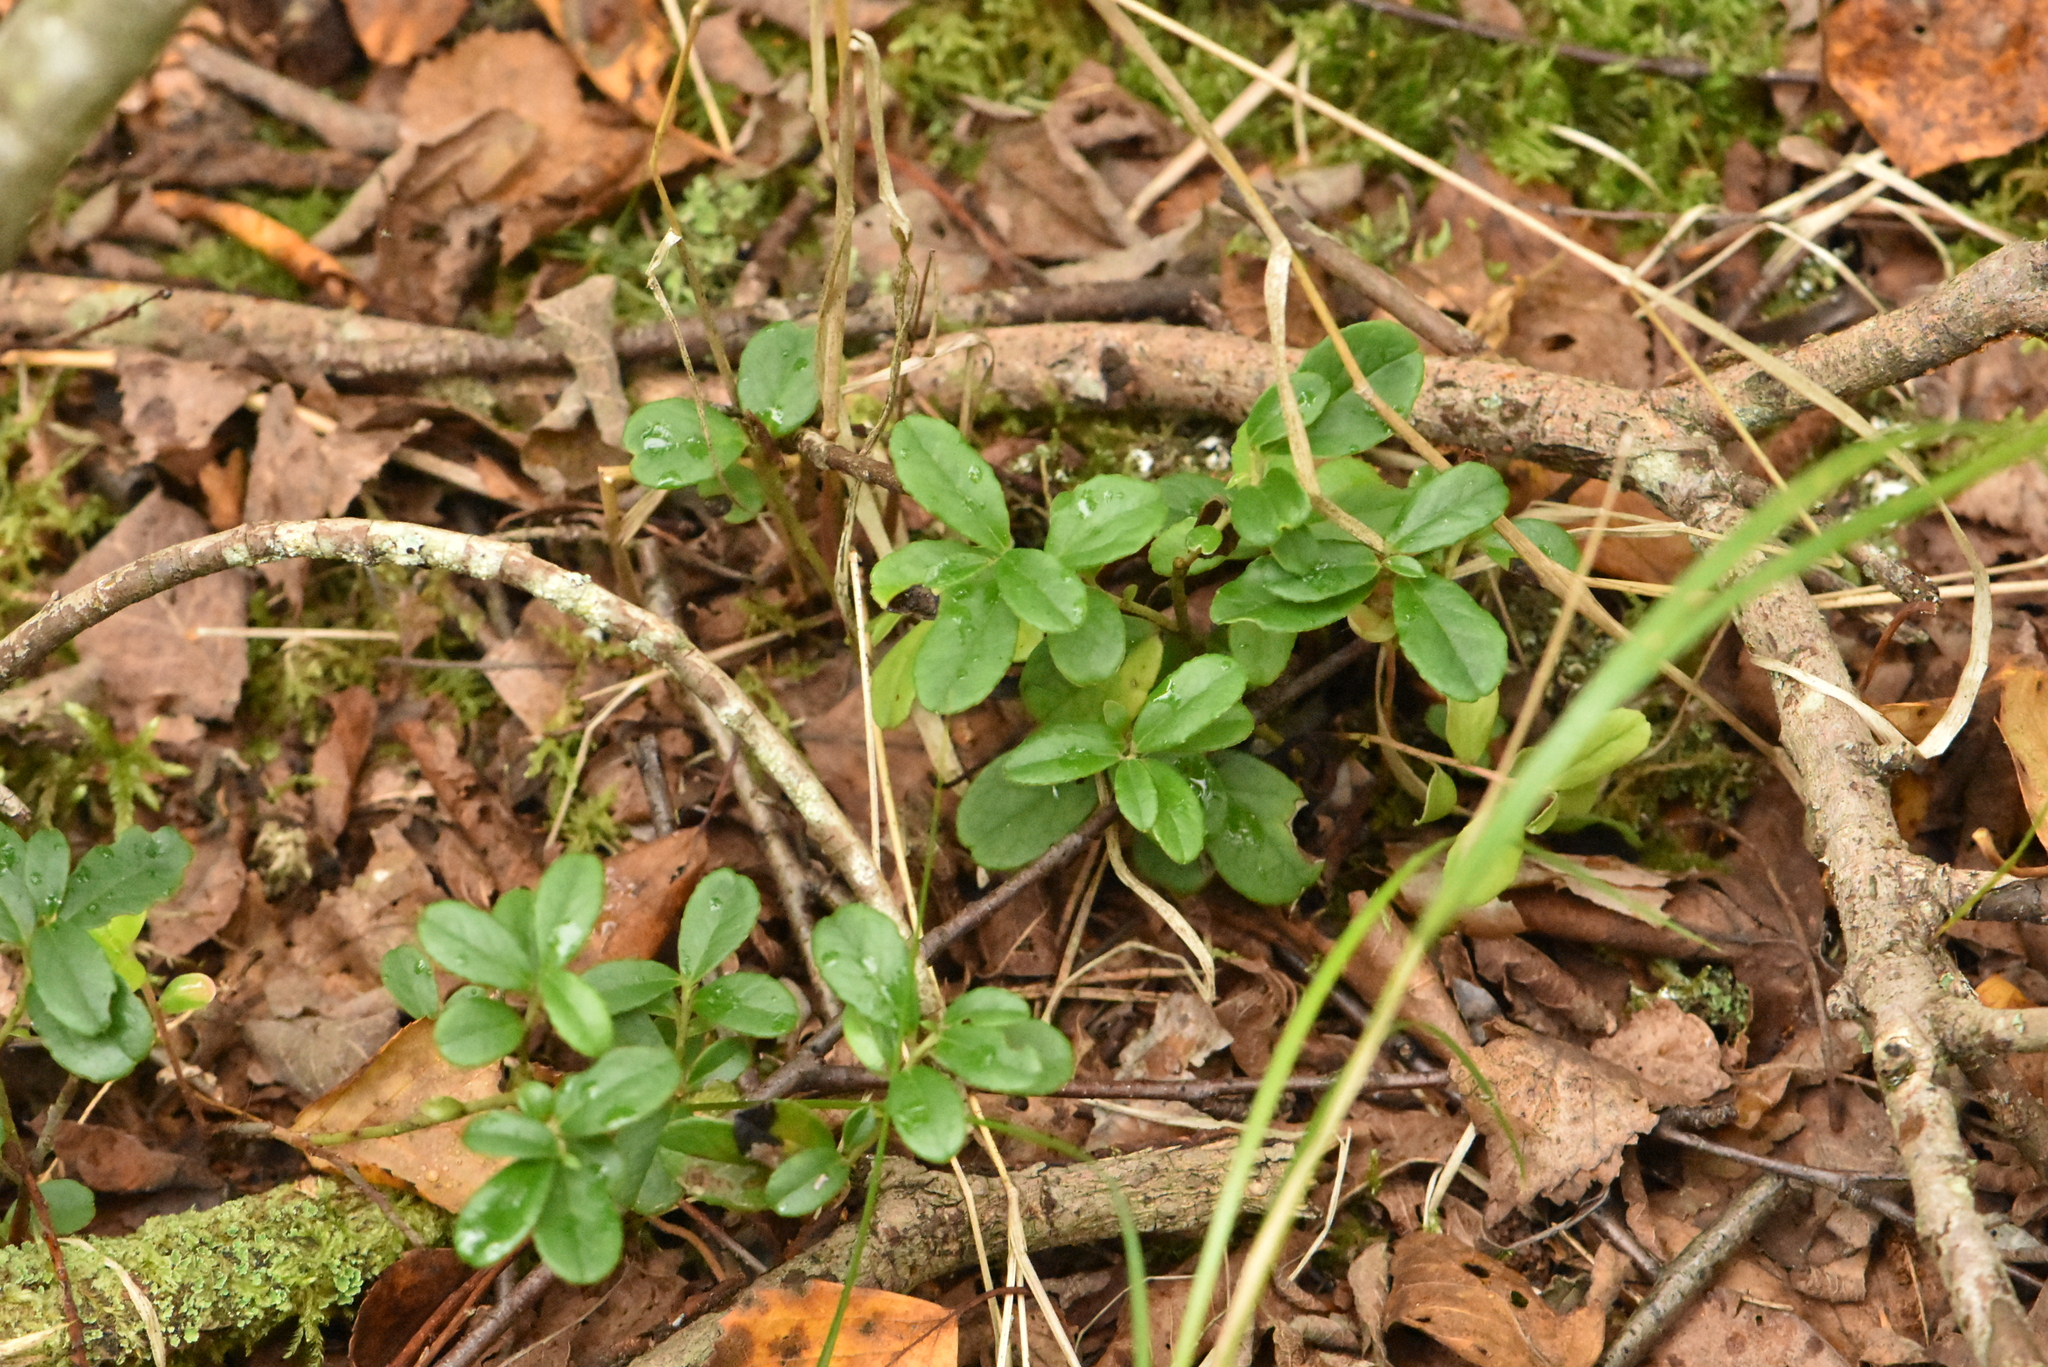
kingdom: Plantae
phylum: Tracheophyta
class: Magnoliopsida
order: Ericales
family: Ericaceae
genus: Vaccinium
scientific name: Vaccinium vitis-idaea
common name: Cowberry
